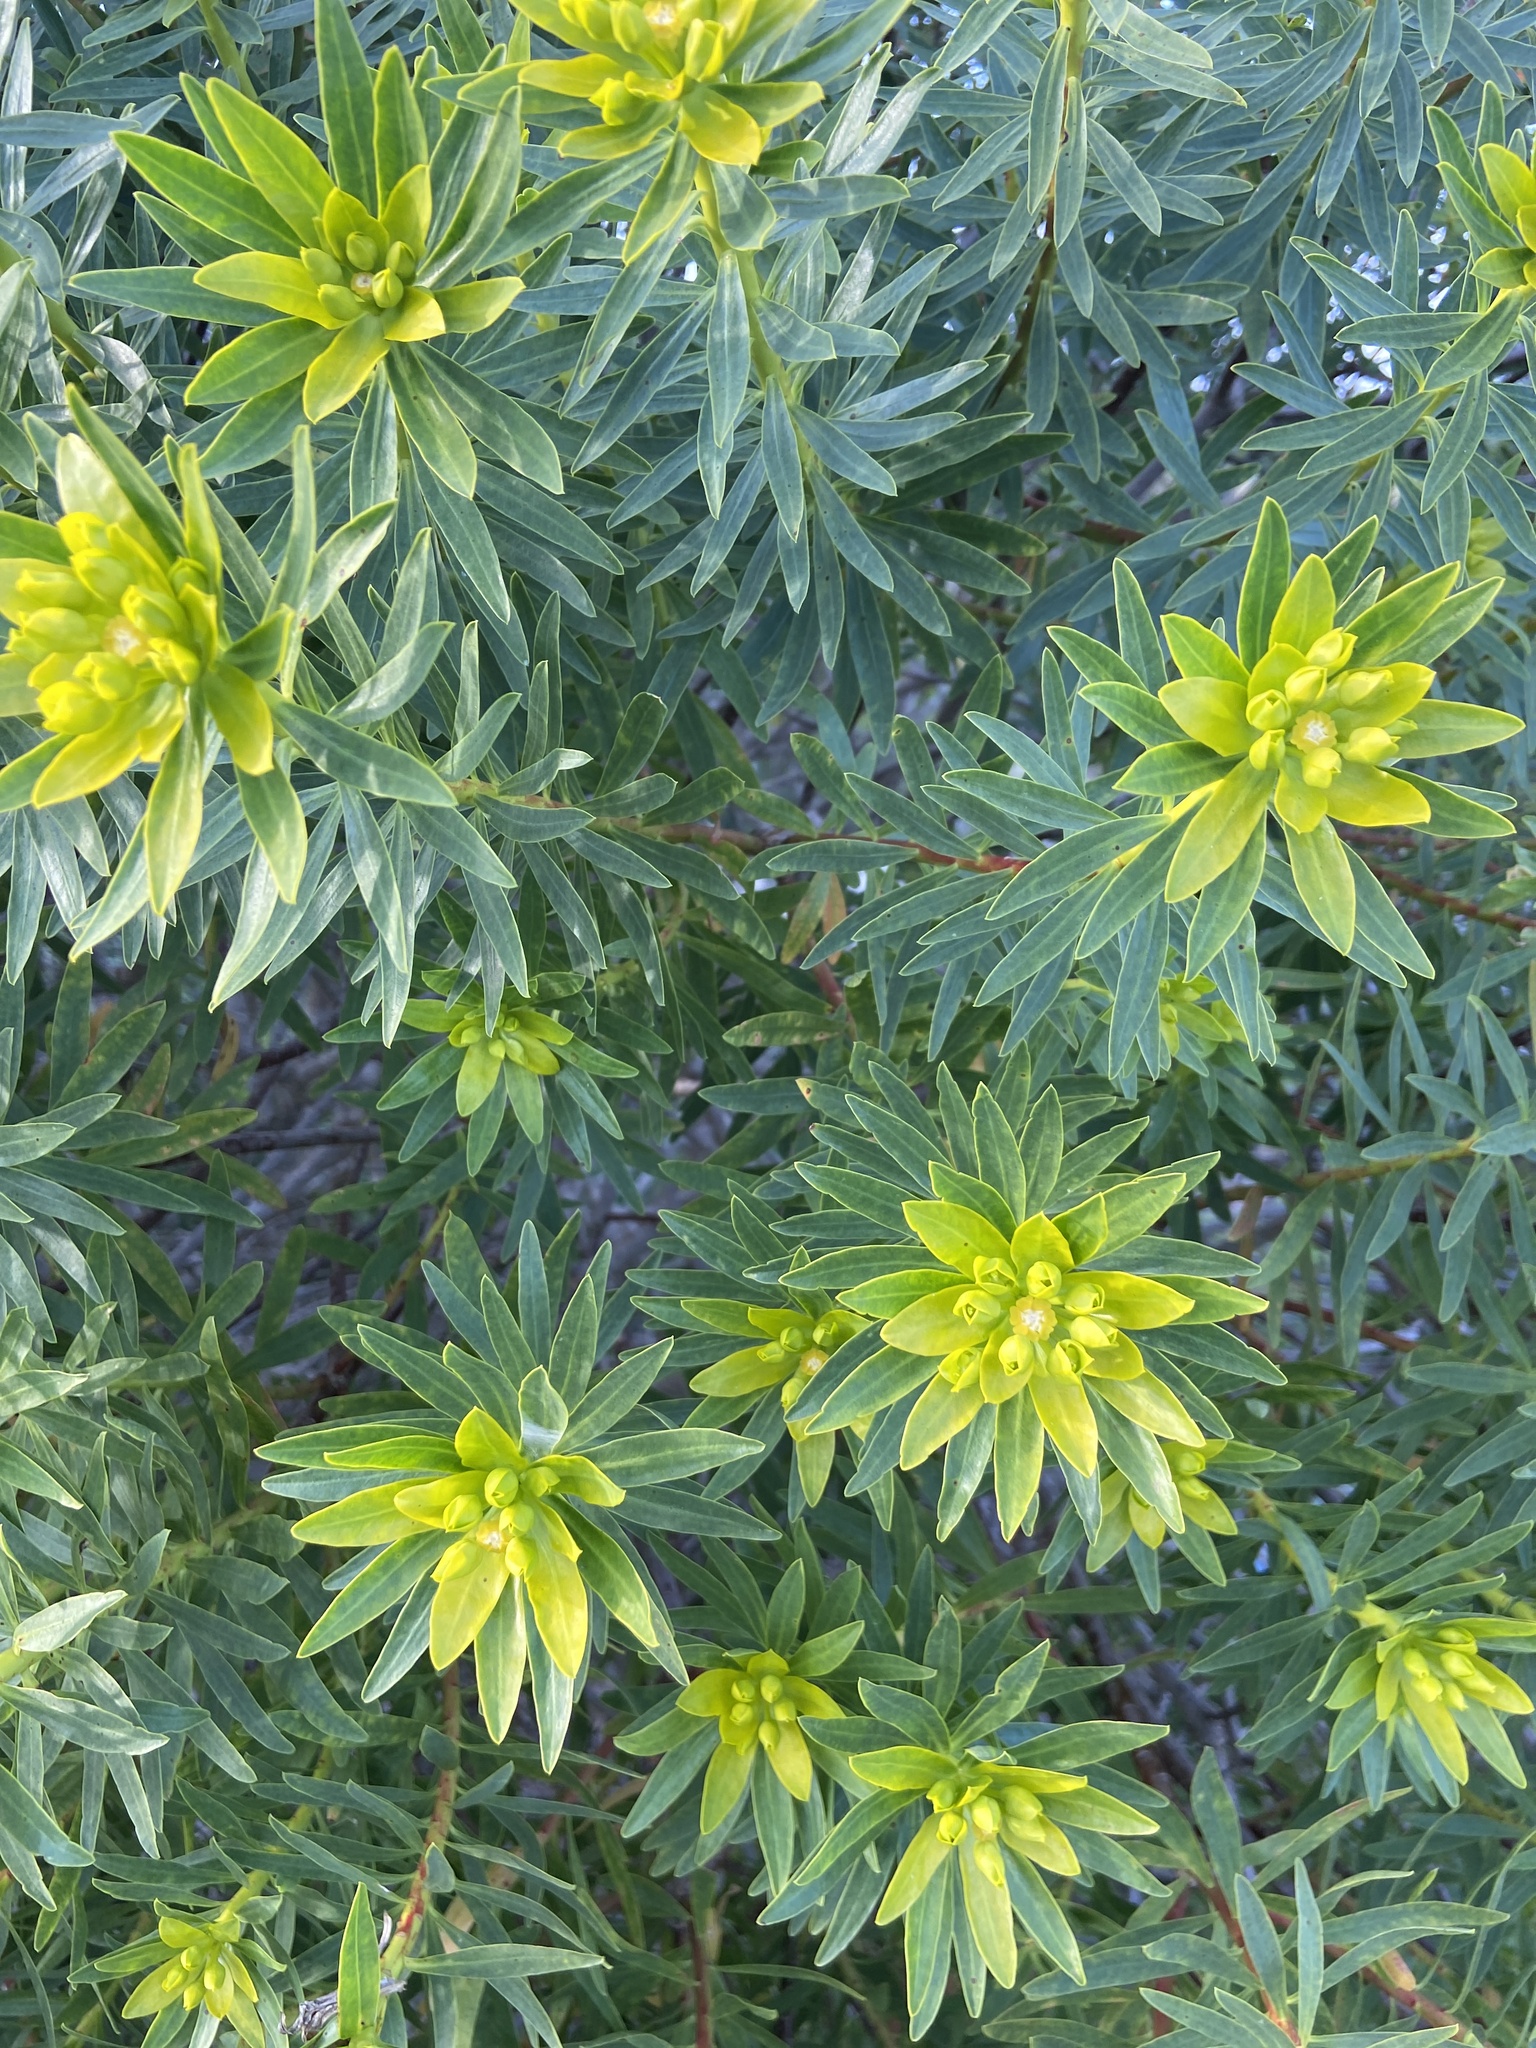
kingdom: Plantae
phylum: Tracheophyta
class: Magnoliopsida
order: Malpighiales
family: Euphorbiaceae
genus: Euphorbia
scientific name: Euphorbia dendroides
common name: Tree spurge
